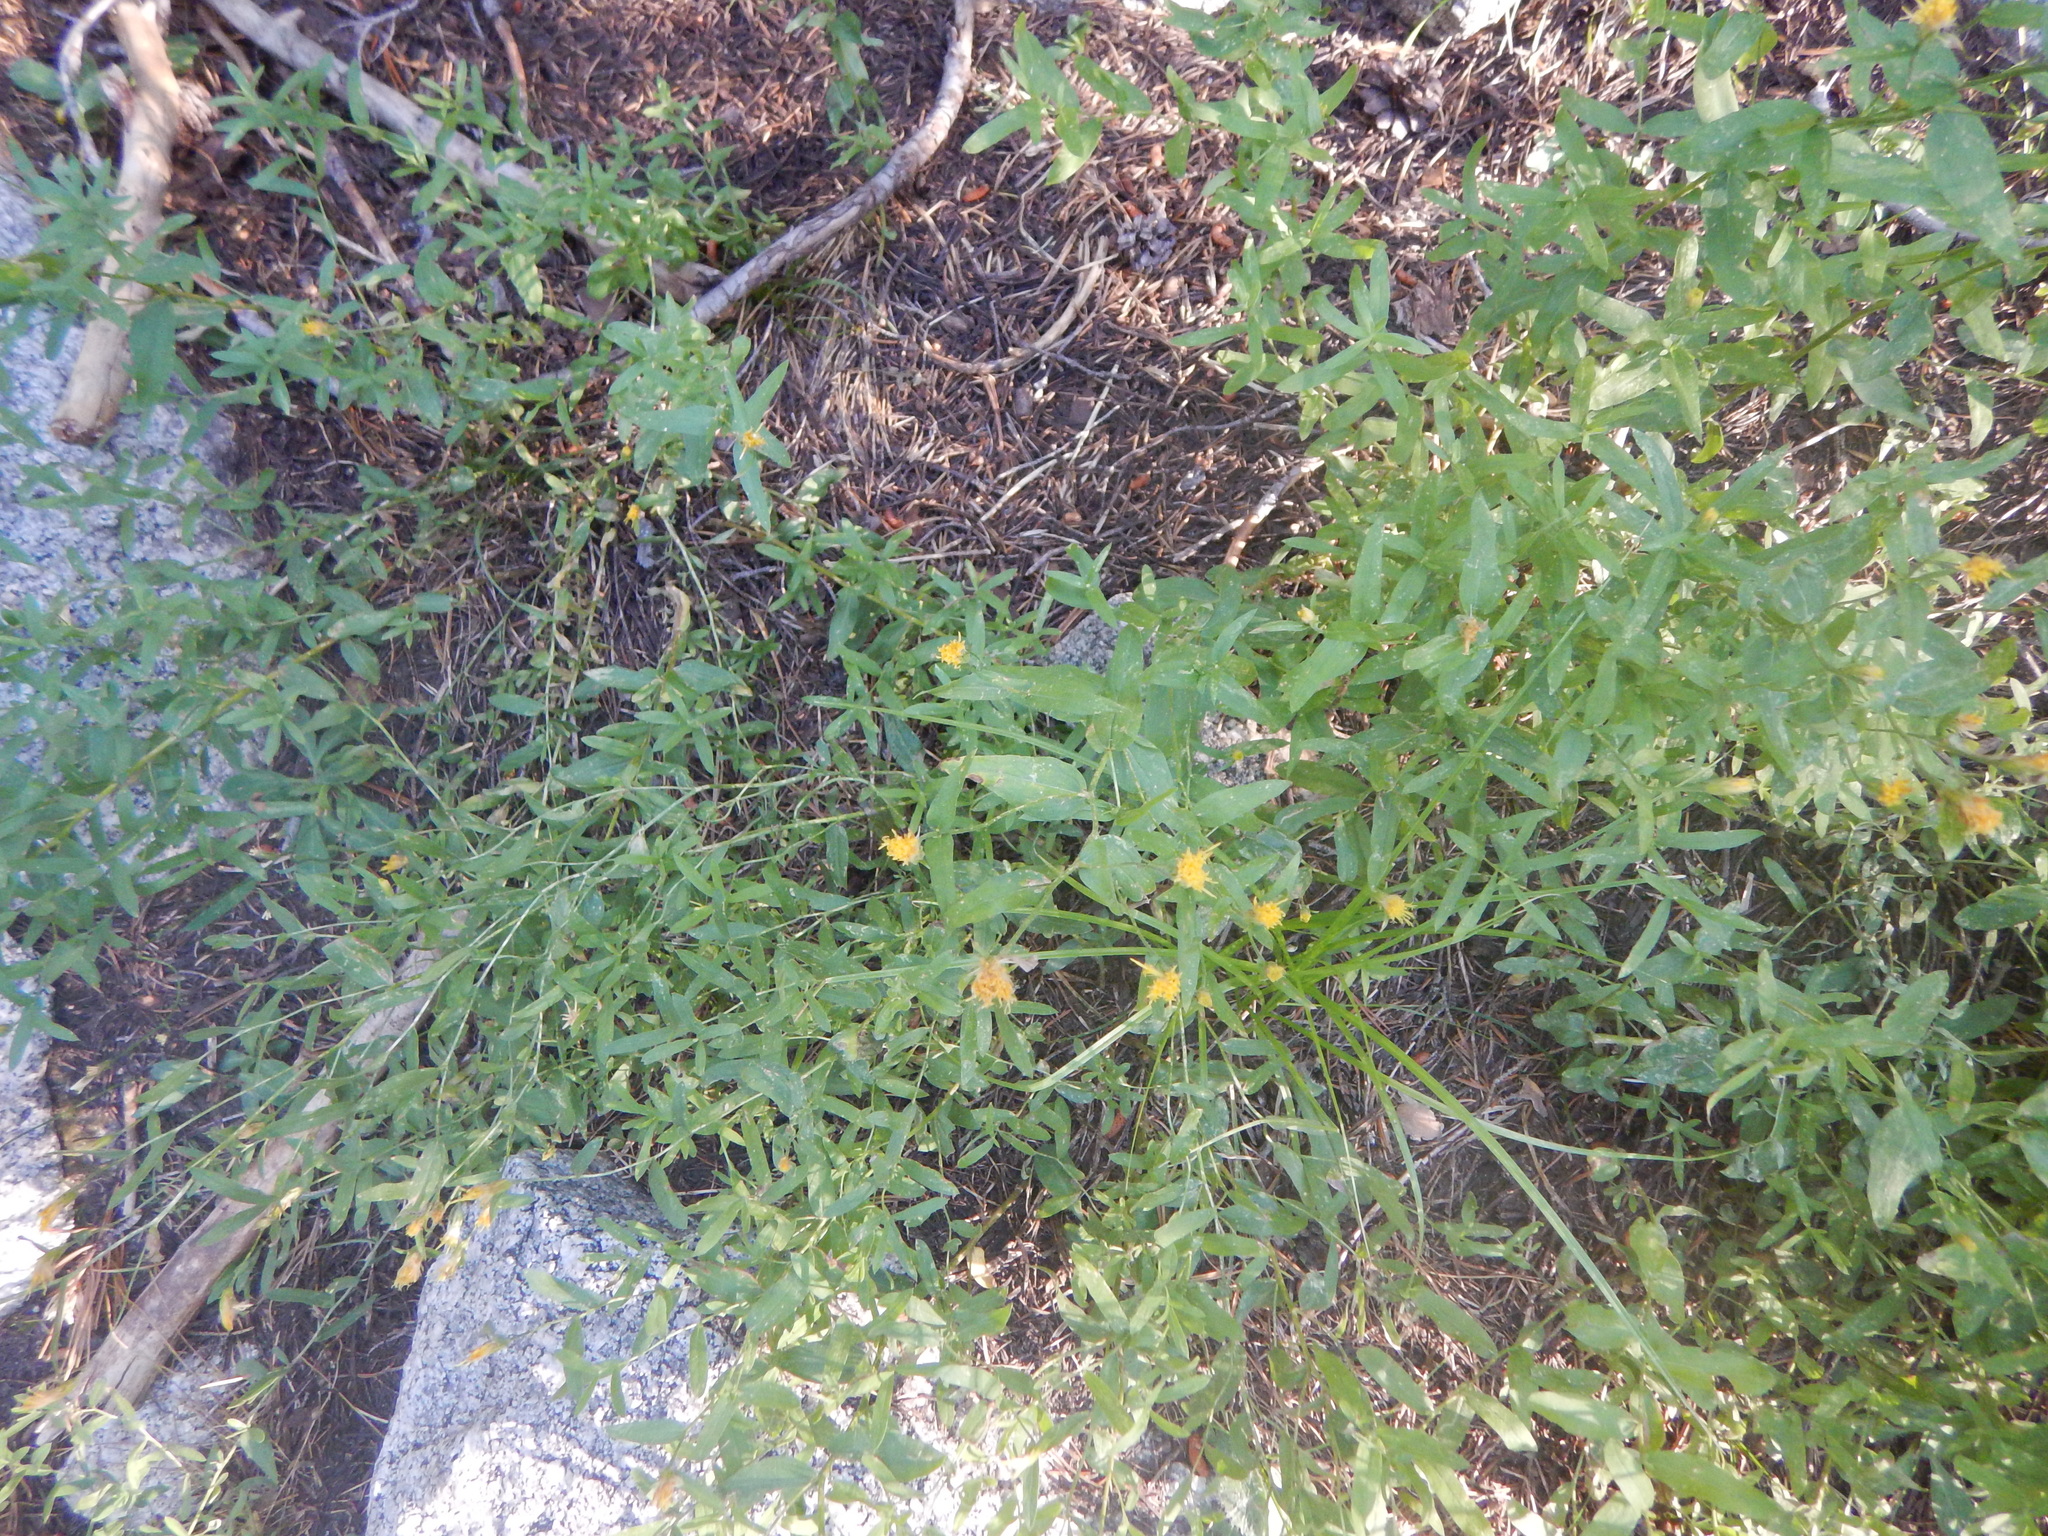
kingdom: Plantae
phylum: Tracheophyta
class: Magnoliopsida
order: Asterales
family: Asteraceae
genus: Eucephalus
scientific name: Eucephalus breweri
